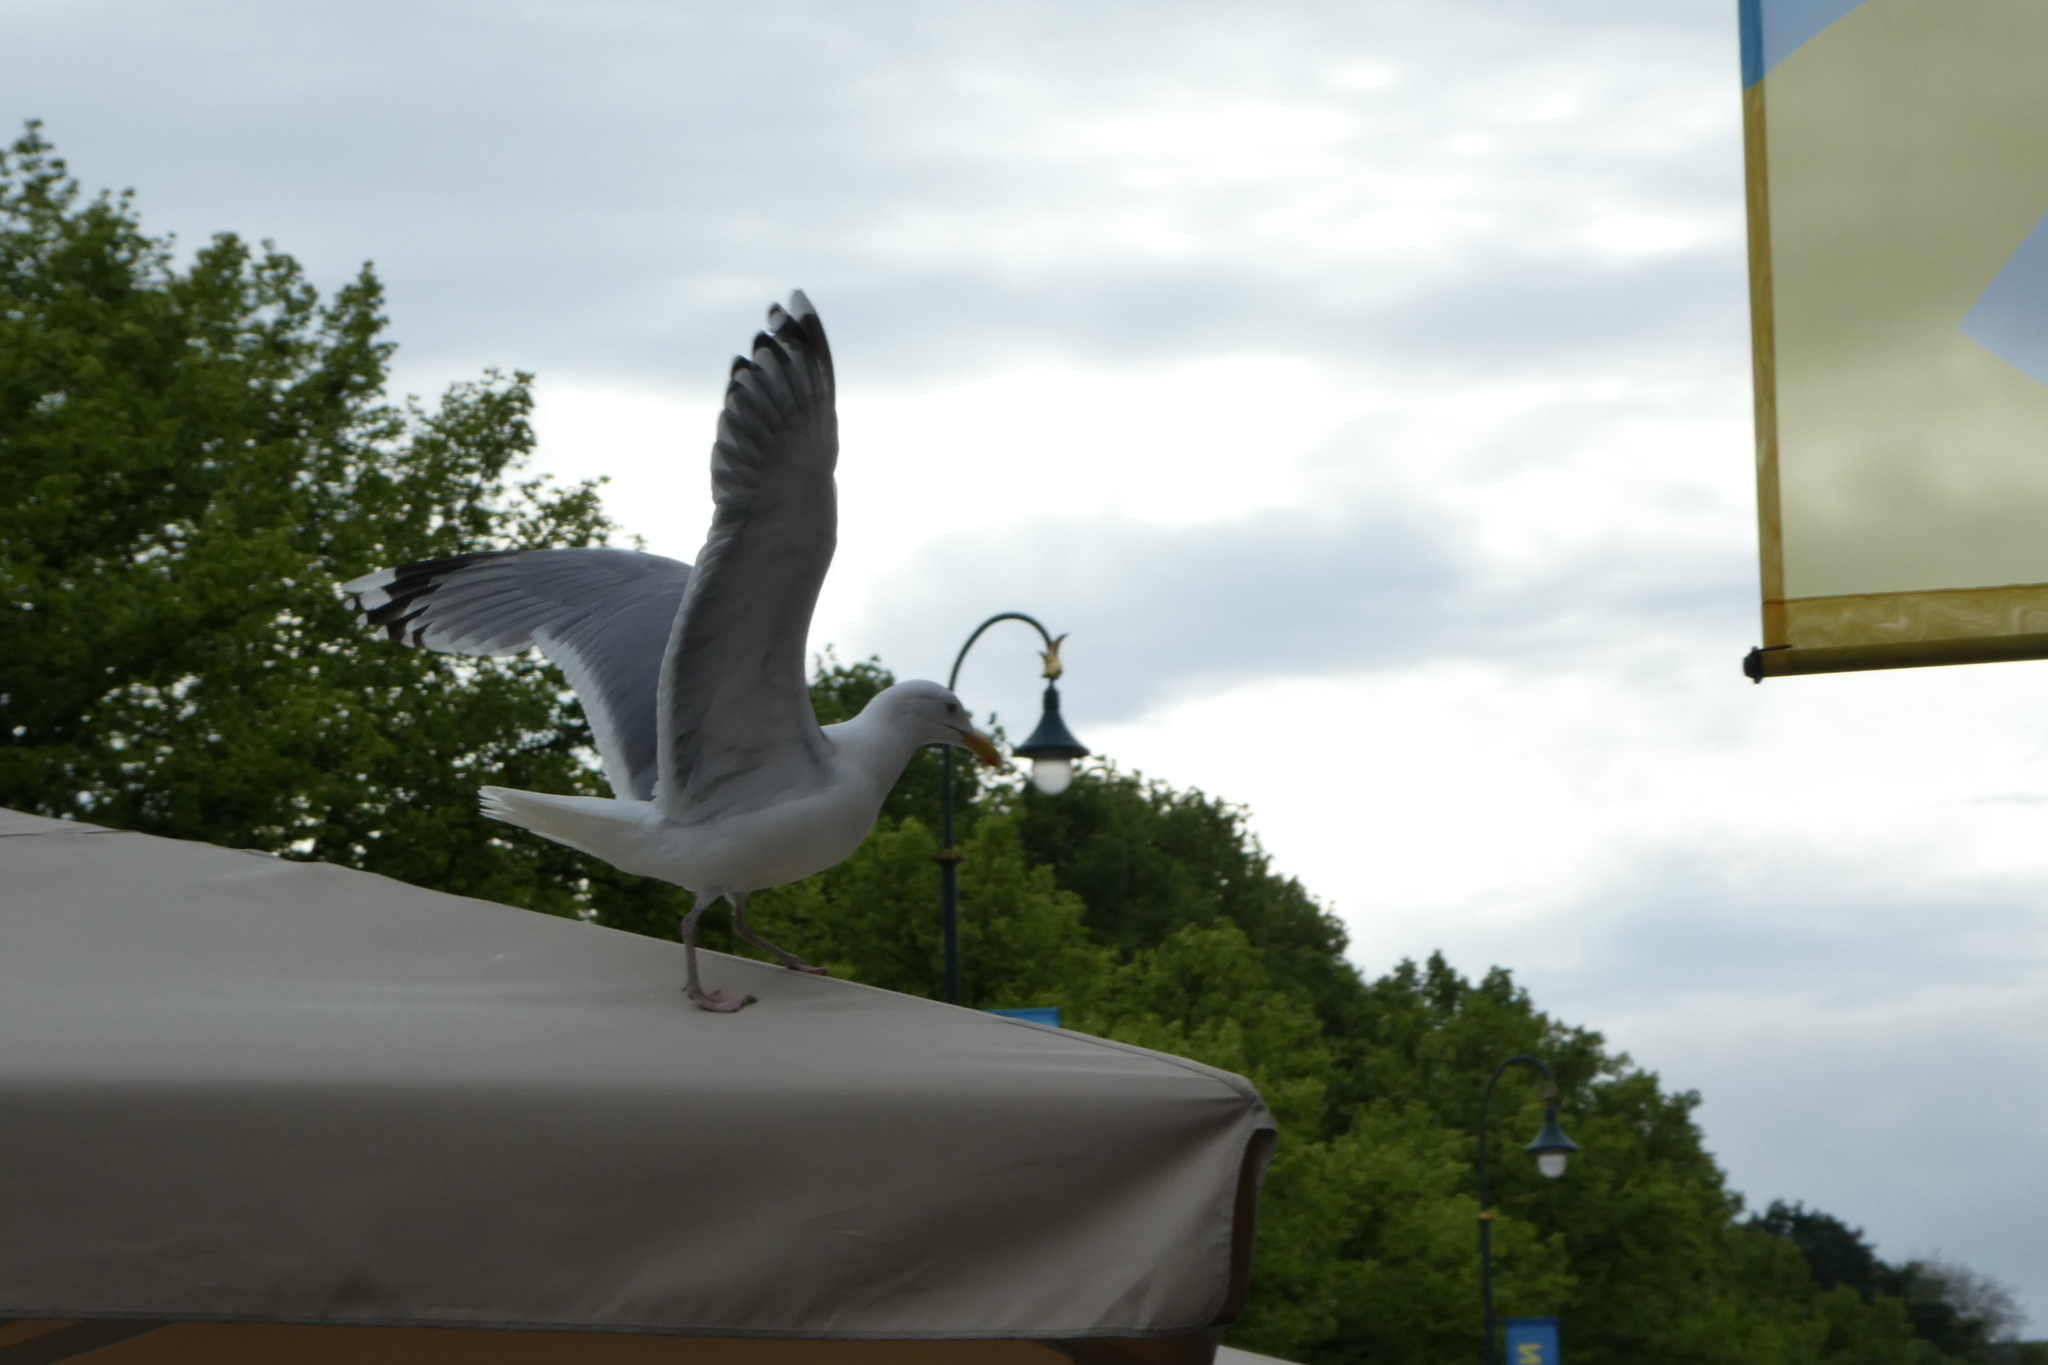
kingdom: Animalia
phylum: Chordata
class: Aves
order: Charadriiformes
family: Laridae
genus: Larus
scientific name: Larus argentatus
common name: Herring gull
